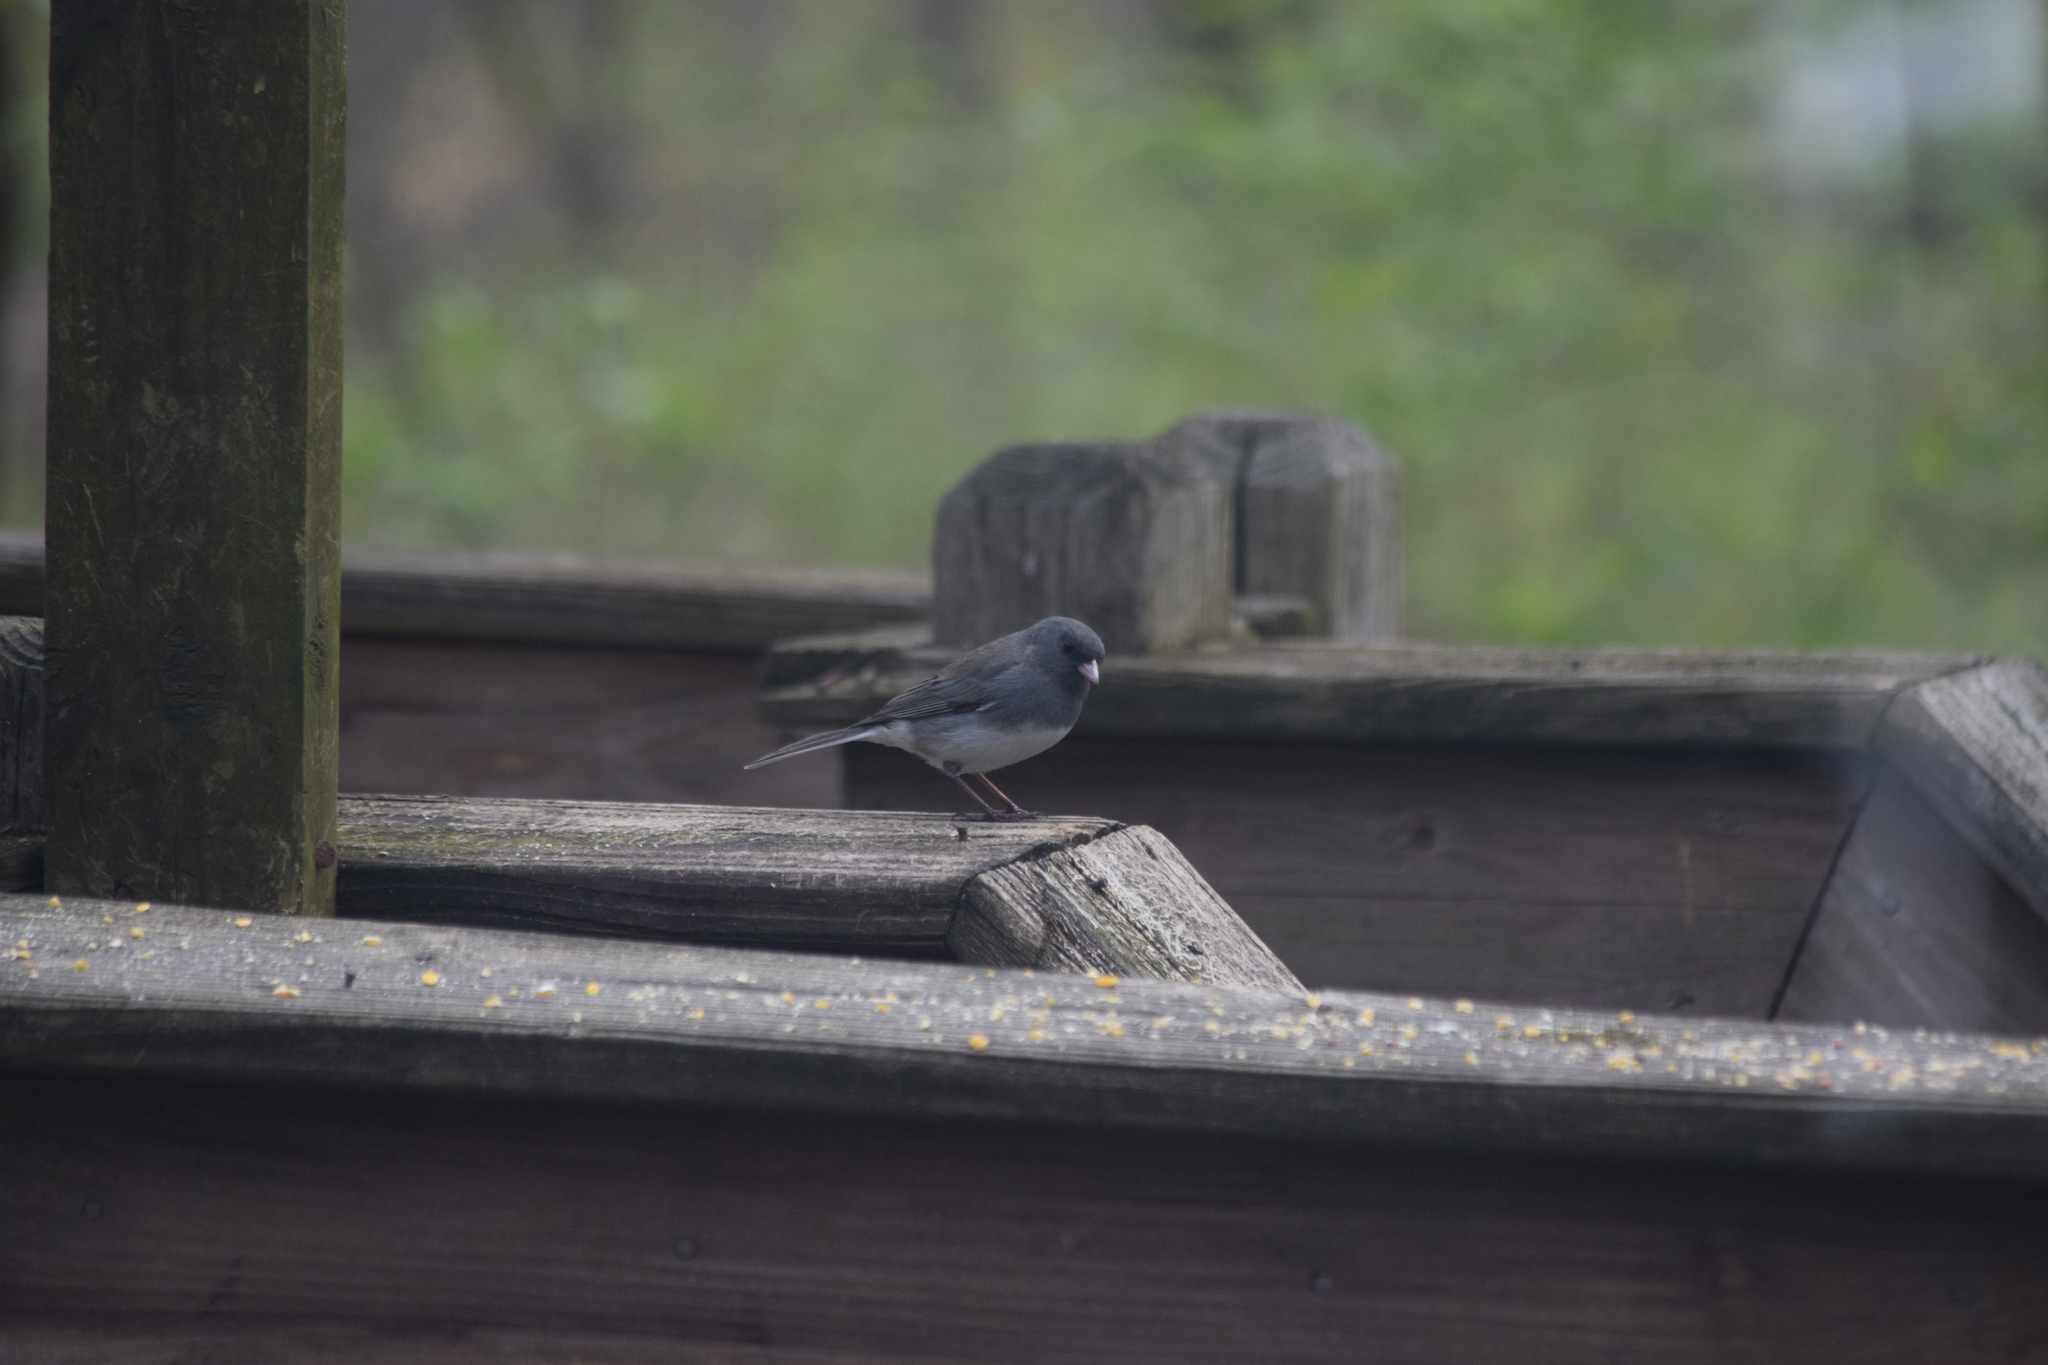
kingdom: Animalia
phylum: Chordata
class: Aves
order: Passeriformes
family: Passerellidae
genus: Junco
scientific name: Junco hyemalis
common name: Dark-eyed junco
